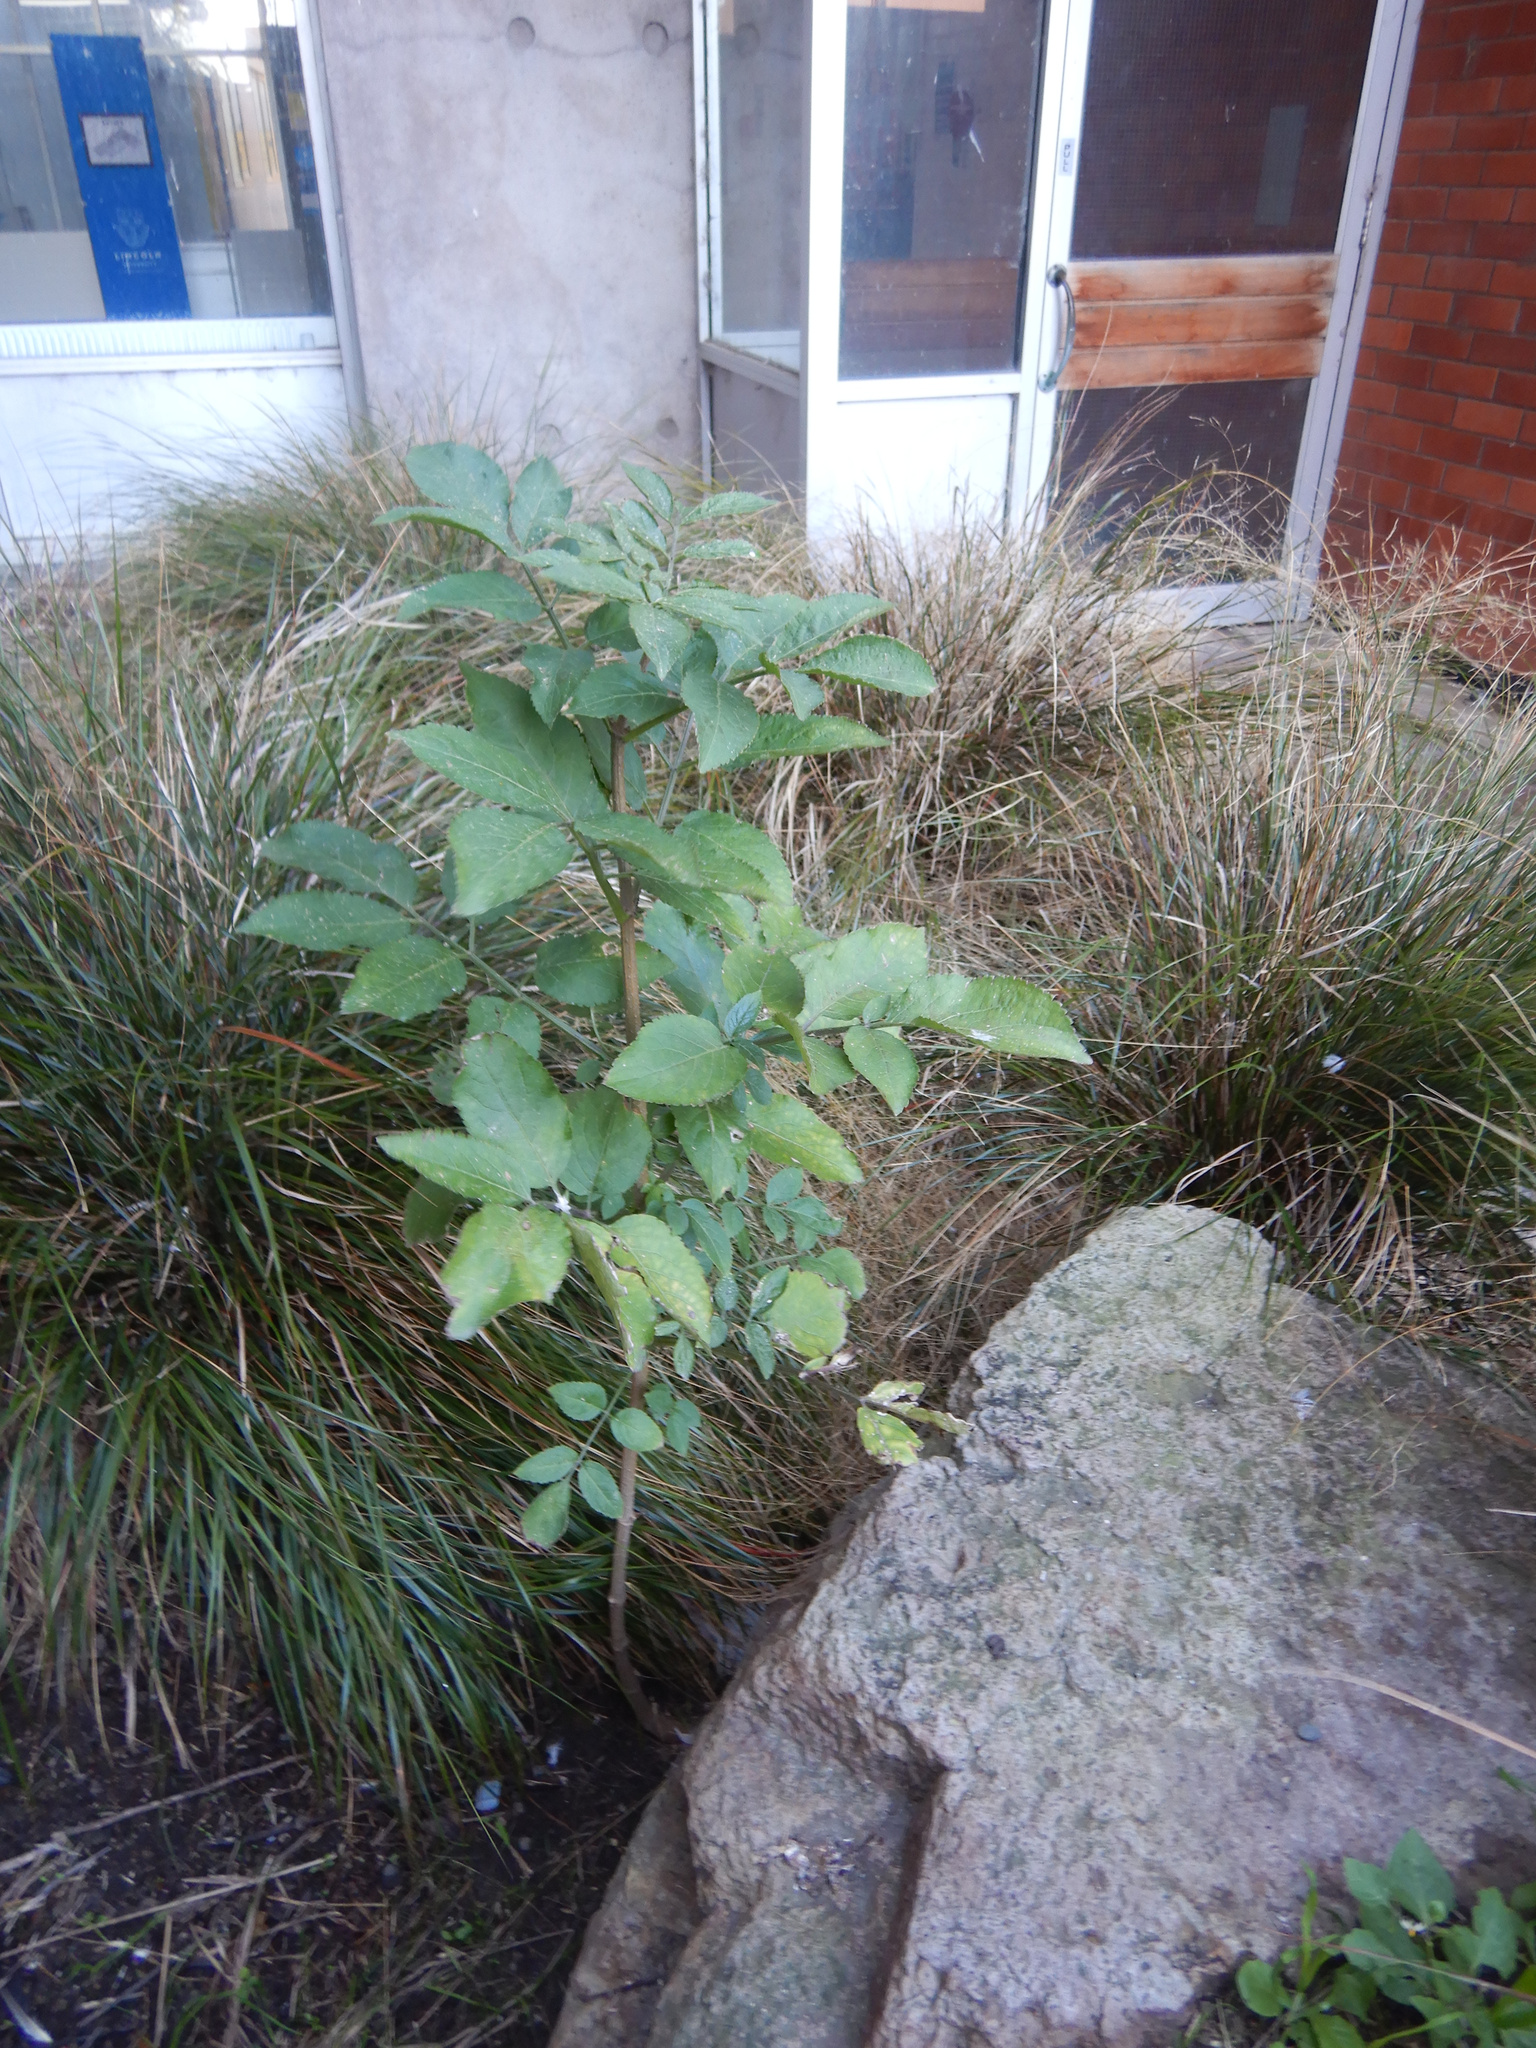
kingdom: Plantae
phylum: Tracheophyta
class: Magnoliopsida
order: Dipsacales
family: Viburnaceae
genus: Sambucus
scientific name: Sambucus nigra
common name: Elder
